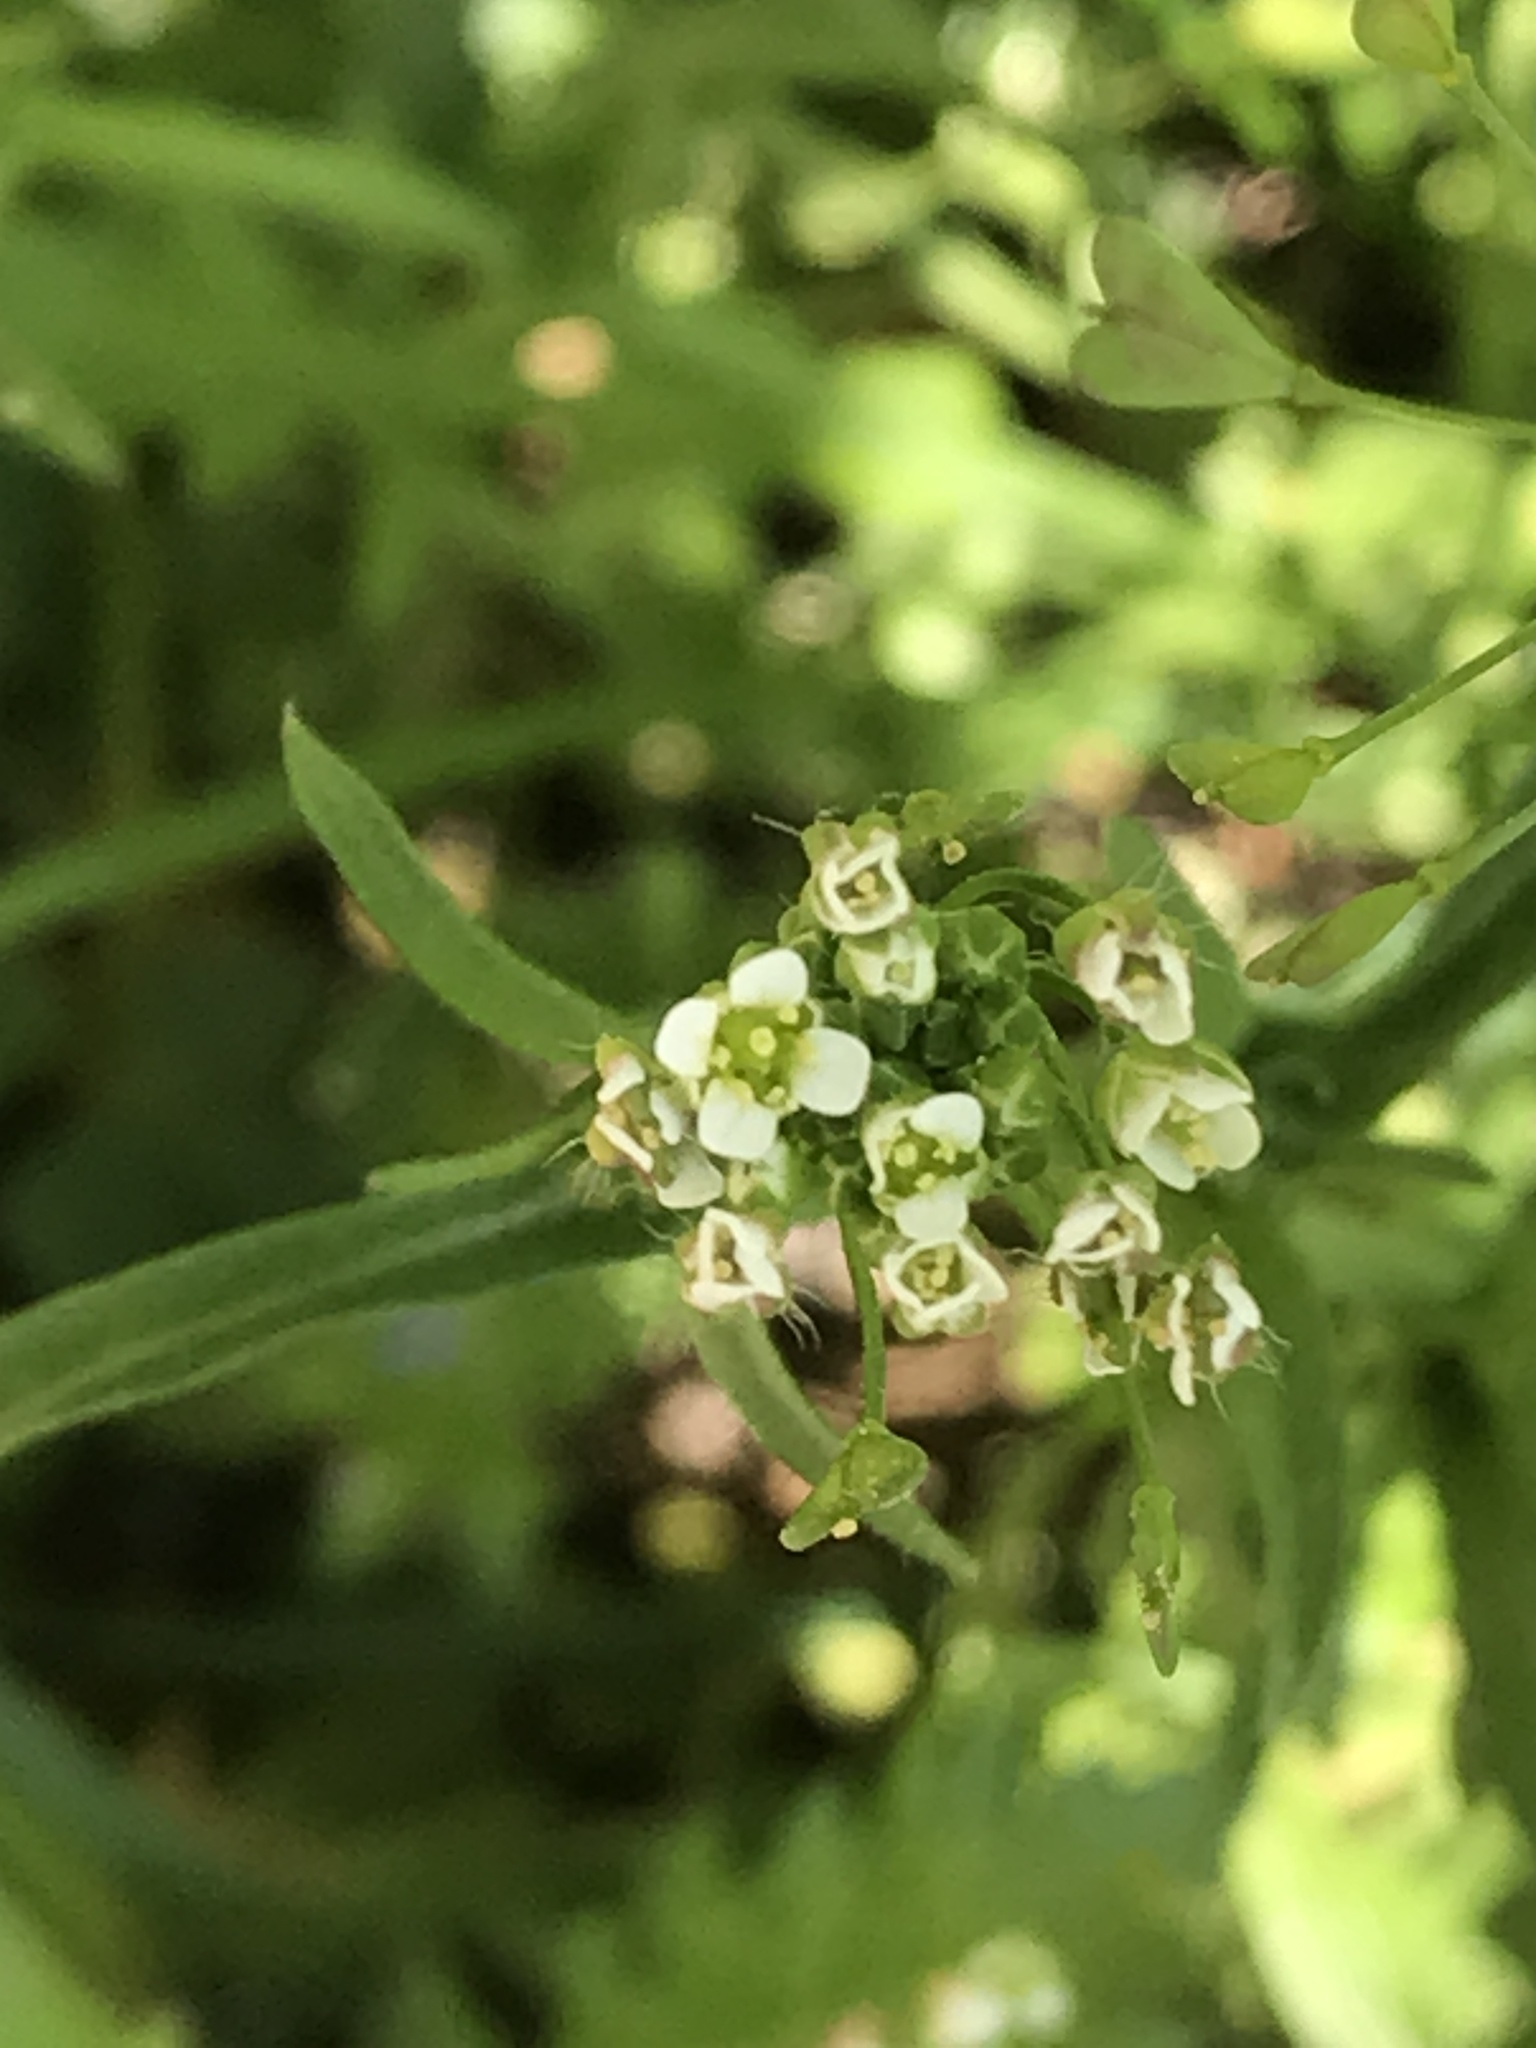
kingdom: Plantae
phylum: Tracheophyta
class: Magnoliopsida
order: Brassicales
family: Brassicaceae
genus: Capsella
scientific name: Capsella bursa-pastoris
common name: Shepherd's purse
